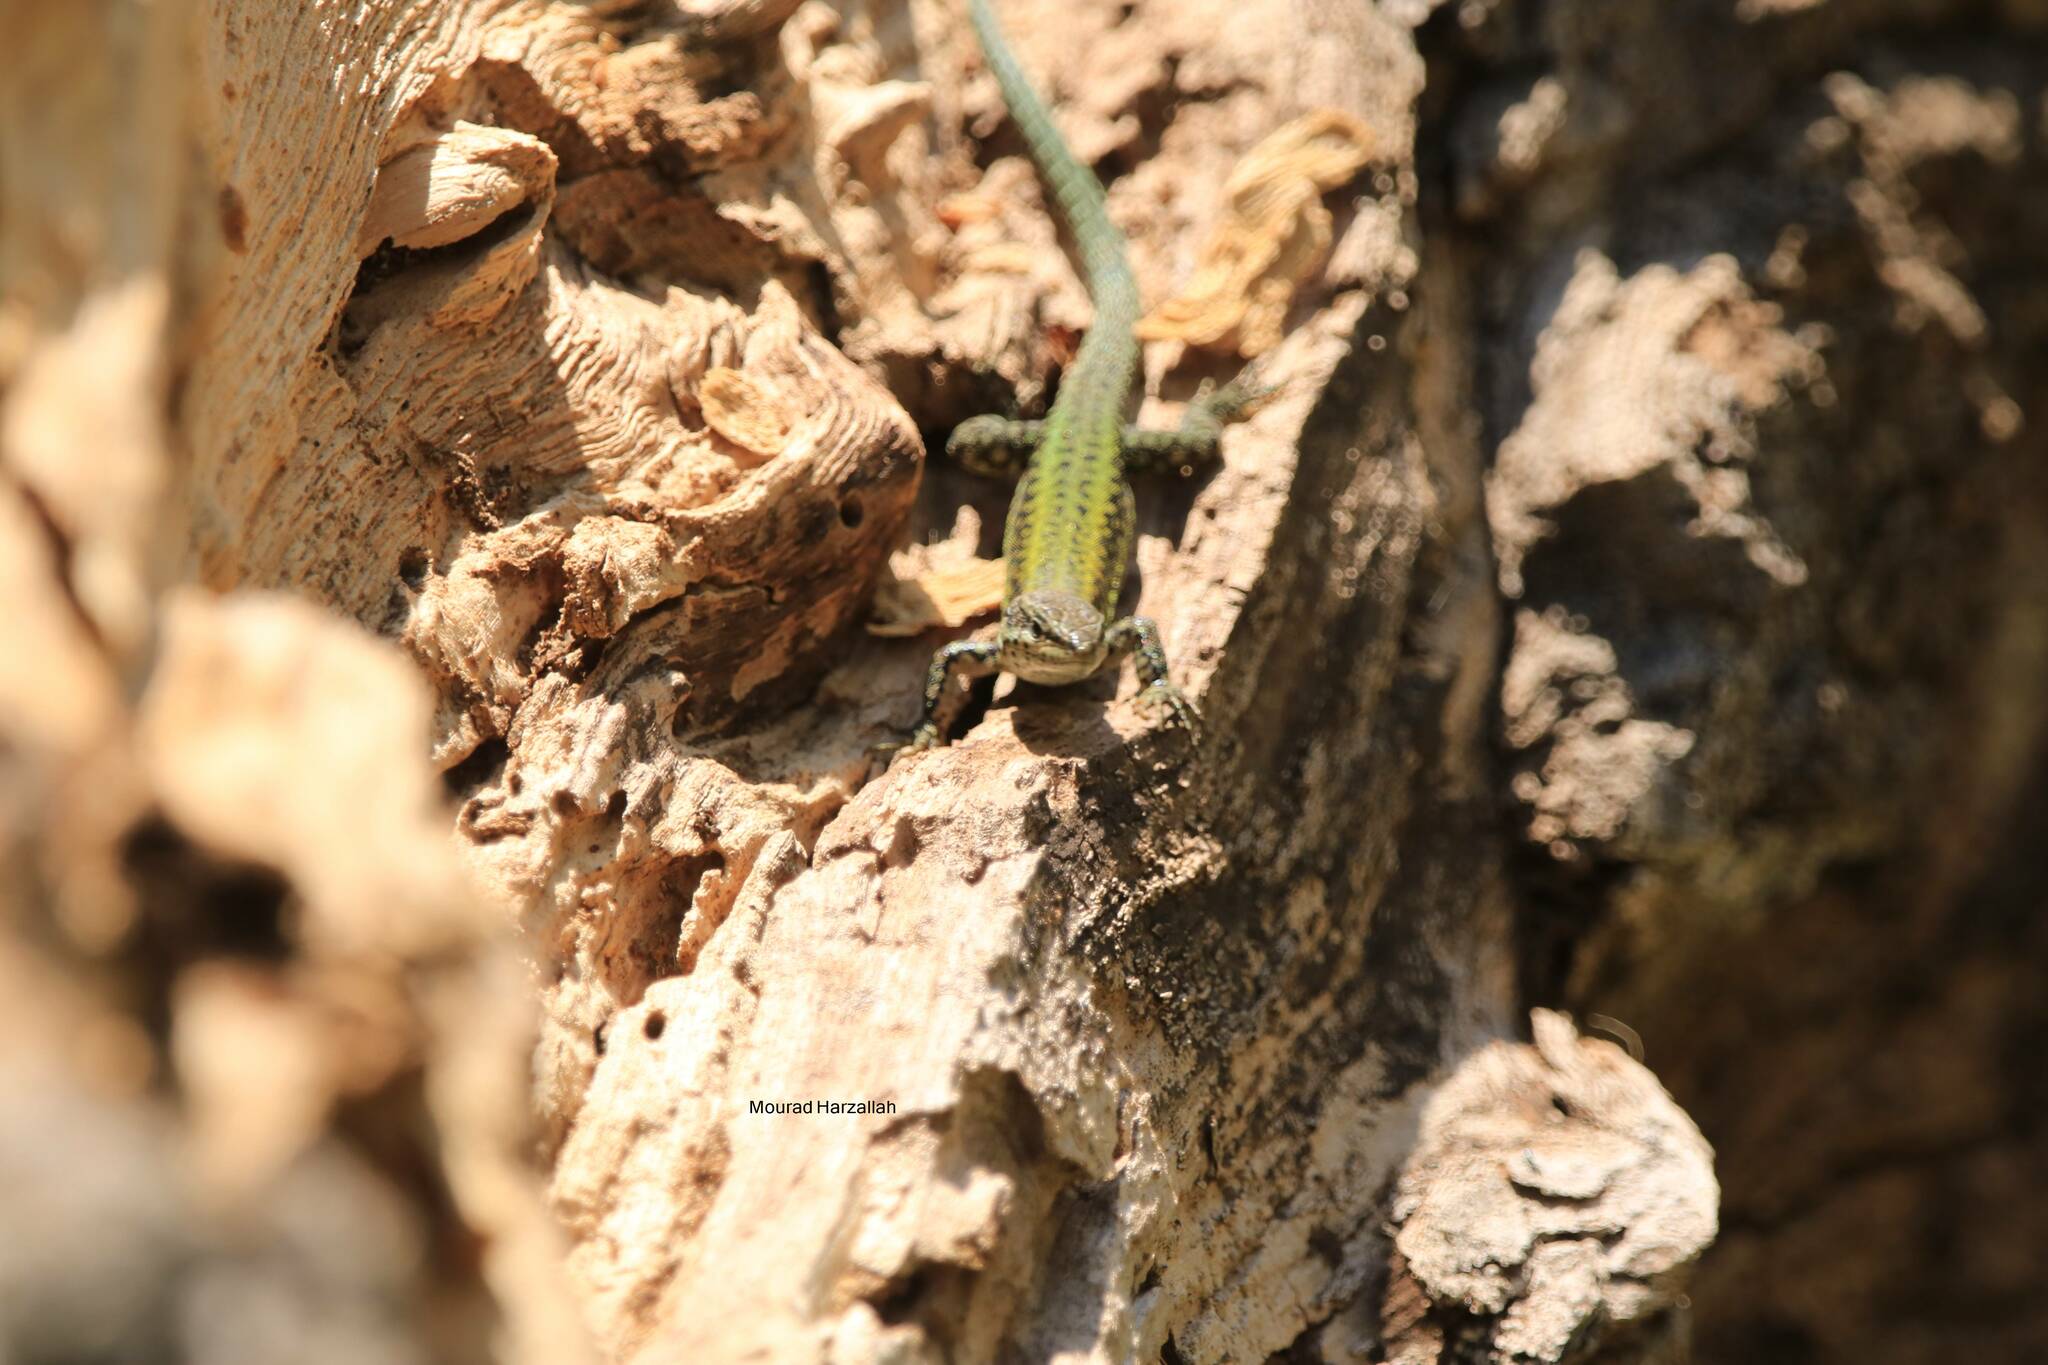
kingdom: Animalia
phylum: Chordata
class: Squamata
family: Lacertidae
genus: Podarcis
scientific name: Podarcis vaucheri
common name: Vaucher's wall lizard
